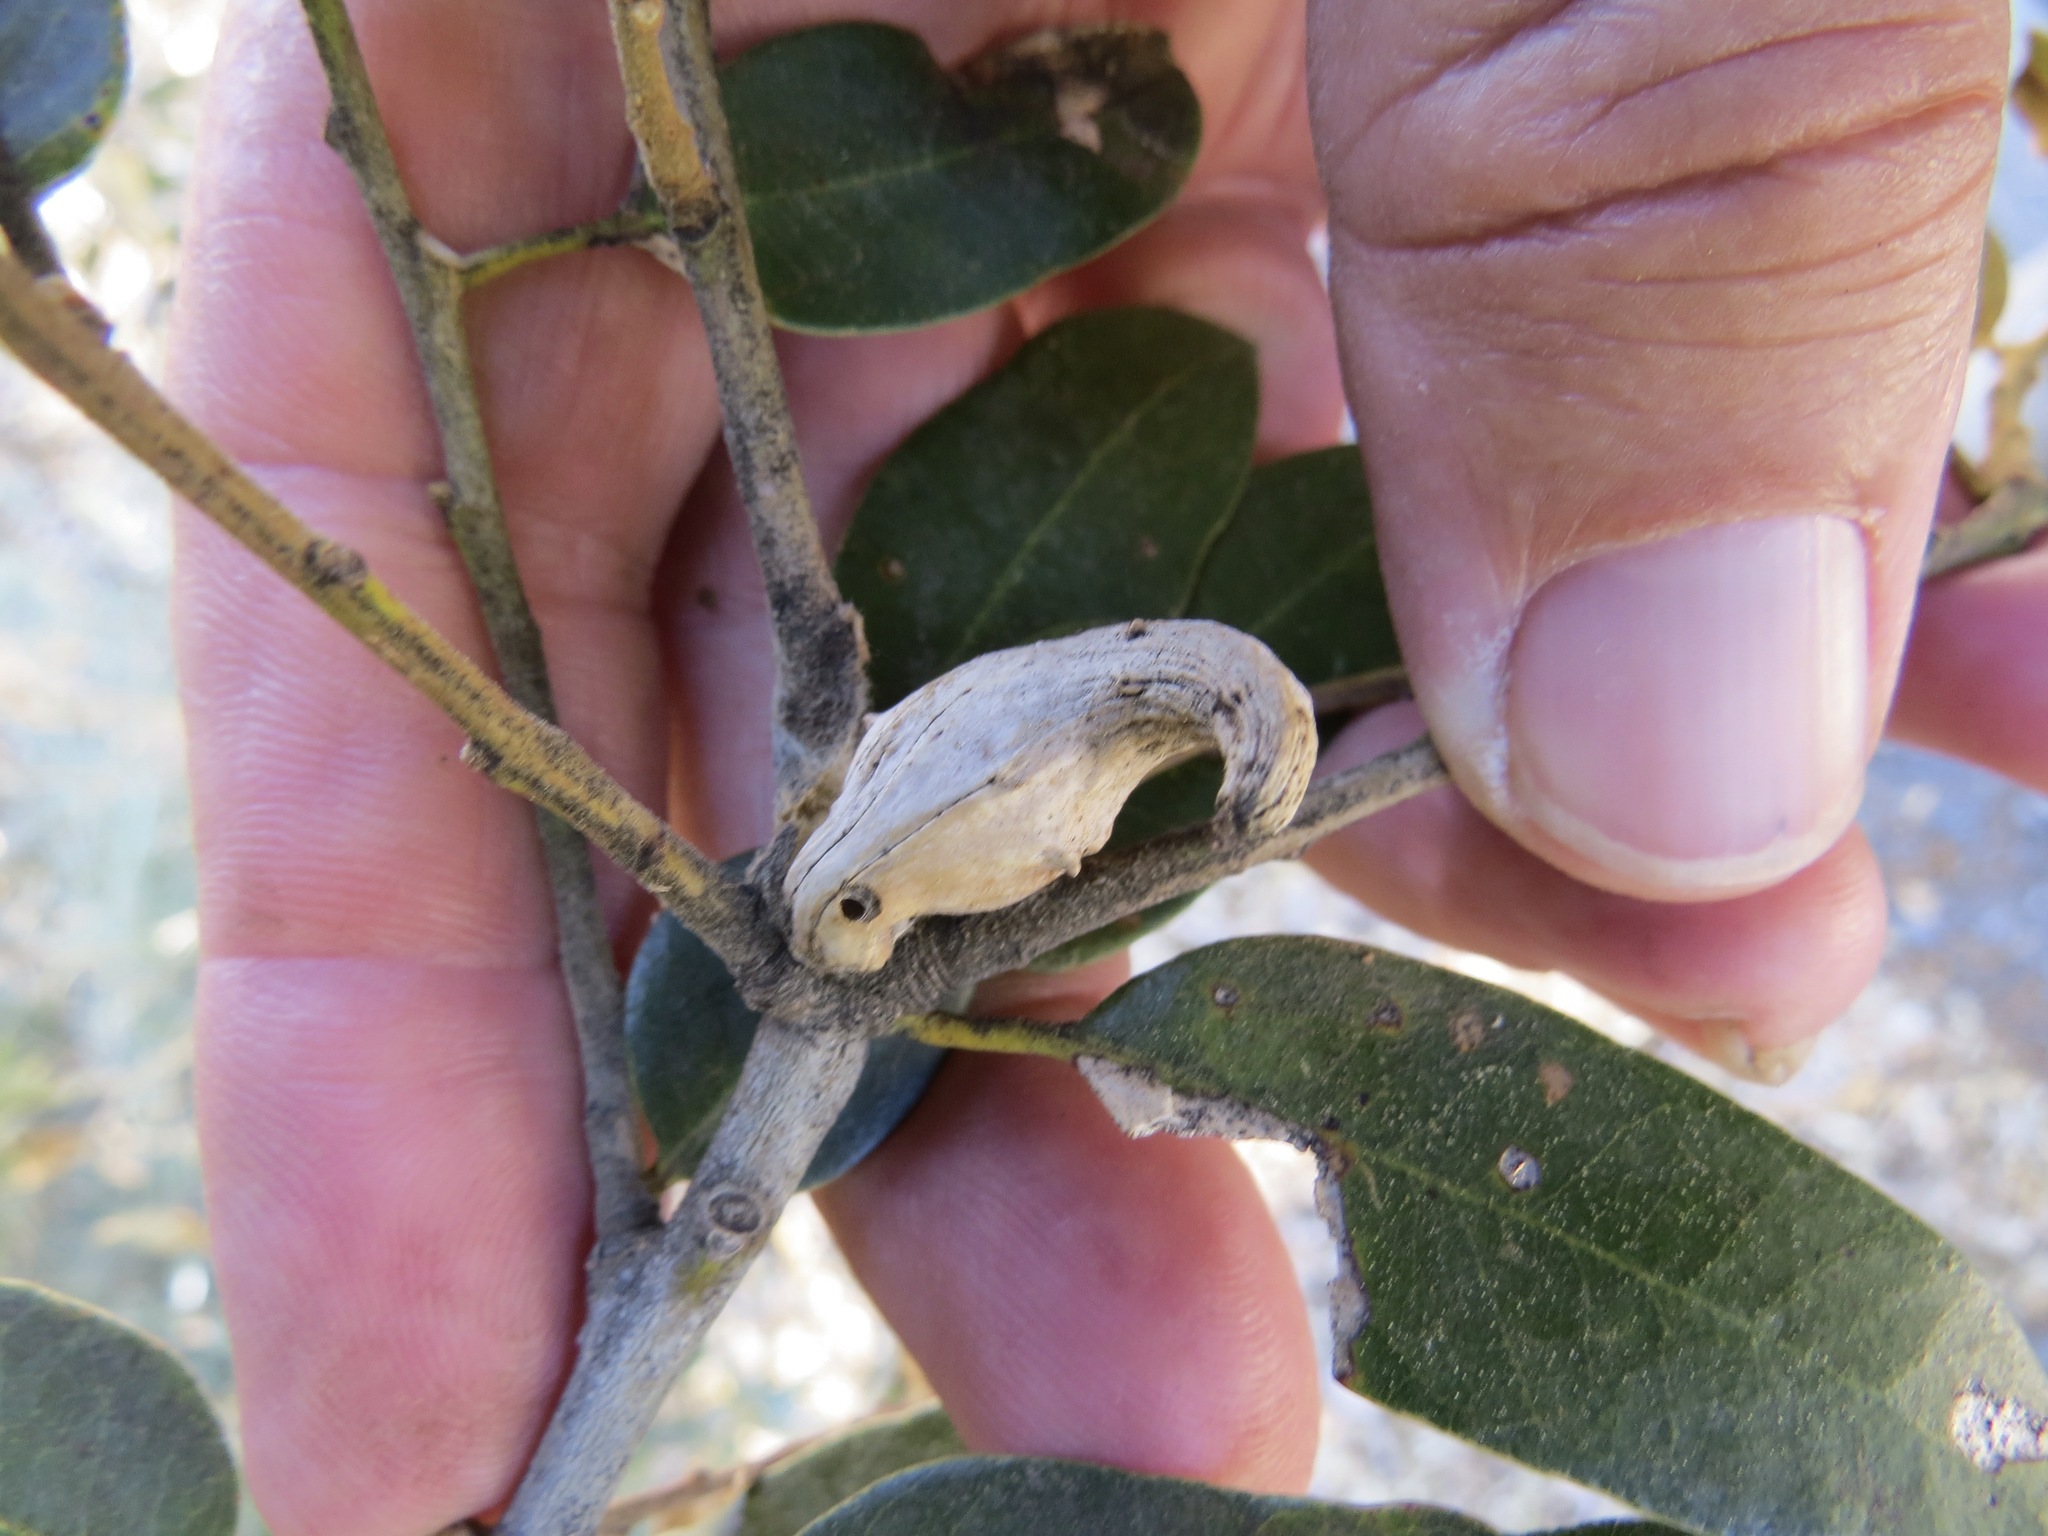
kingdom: Animalia
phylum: Arthropoda
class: Insecta
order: Hymenoptera
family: Cynipidae
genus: Heteroecus
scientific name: Heteroecus
